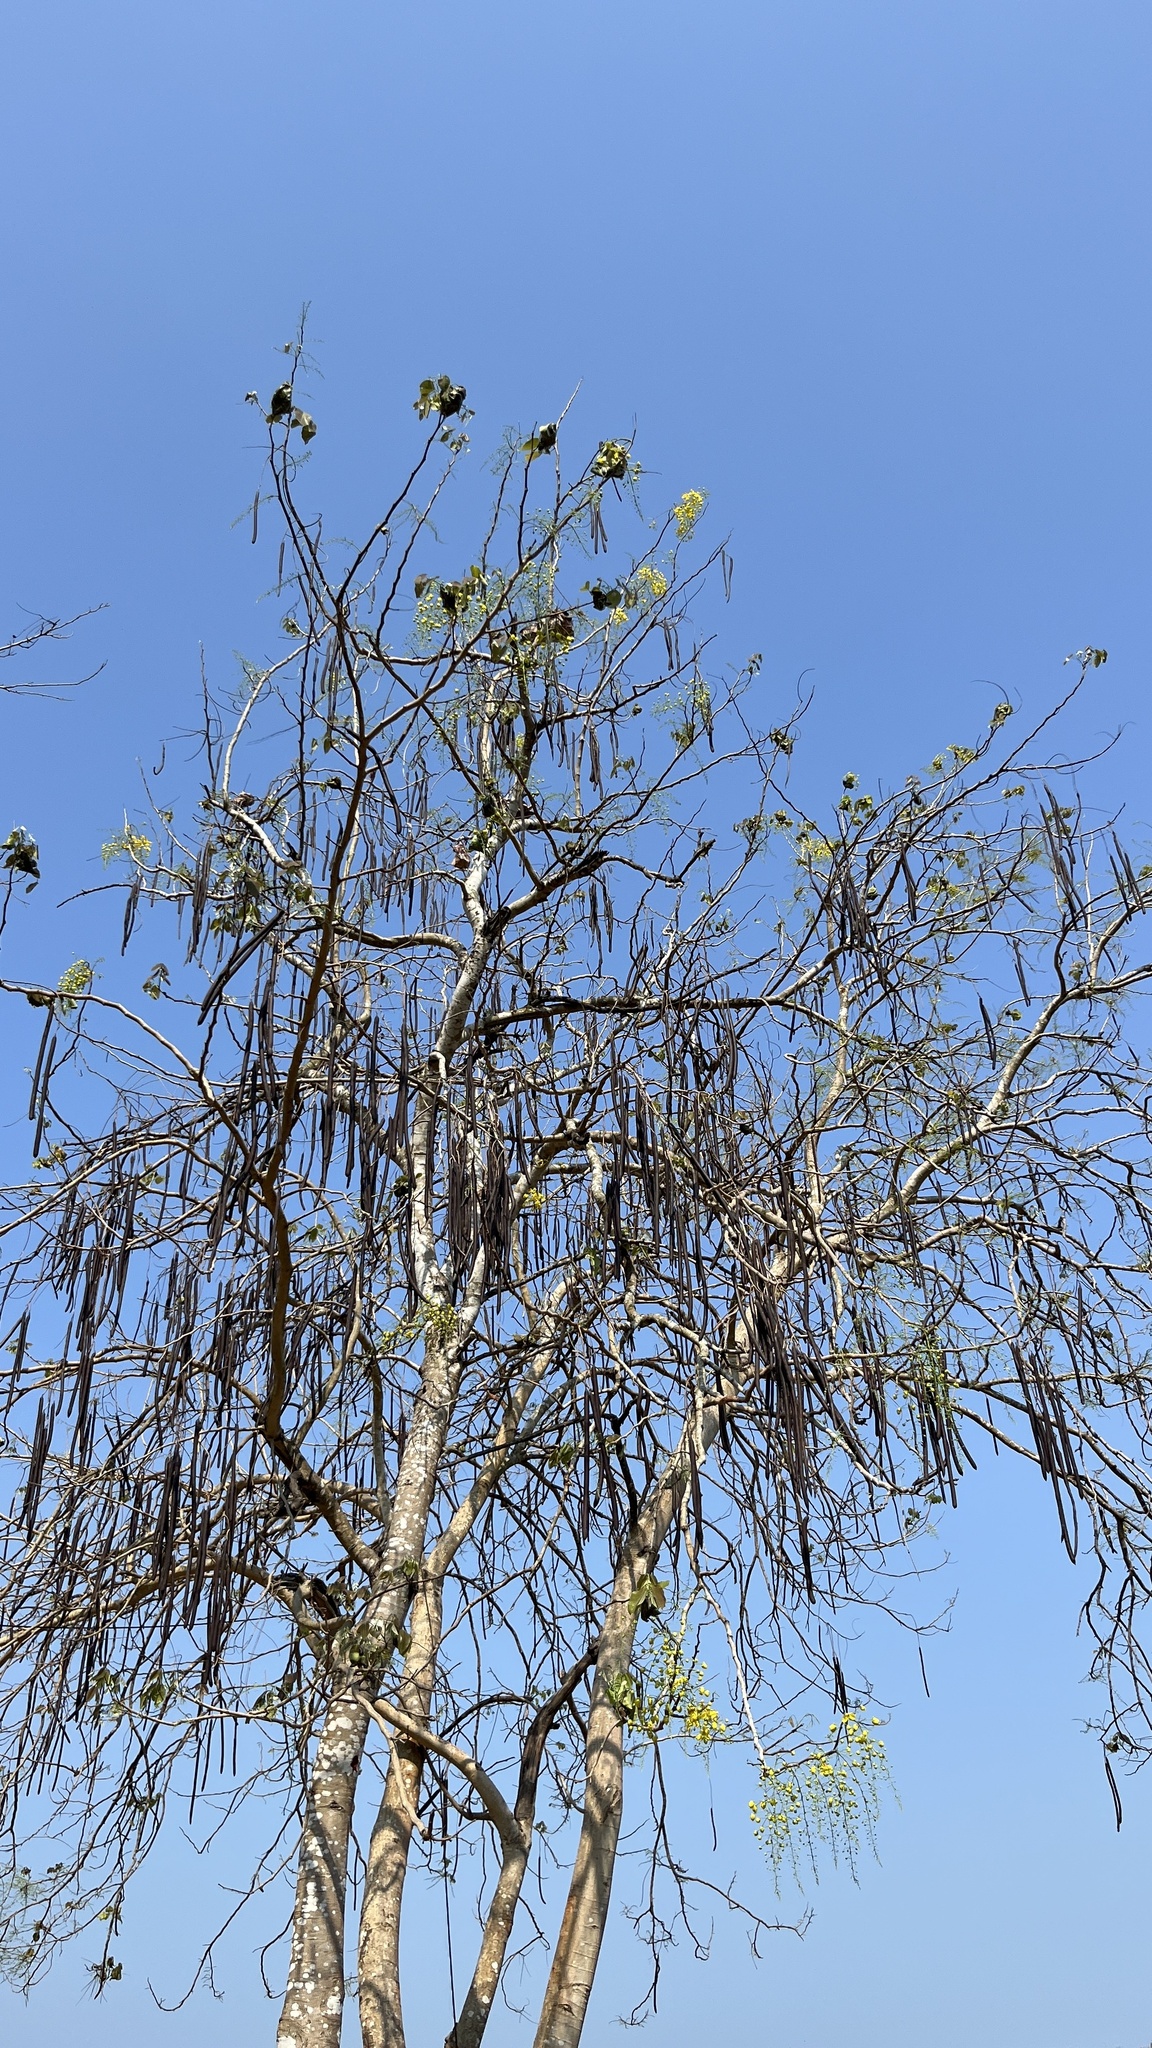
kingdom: Plantae
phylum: Tracheophyta
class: Magnoliopsida
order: Fabales
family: Fabaceae
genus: Cassia
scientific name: Cassia fistula
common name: Golden shower
